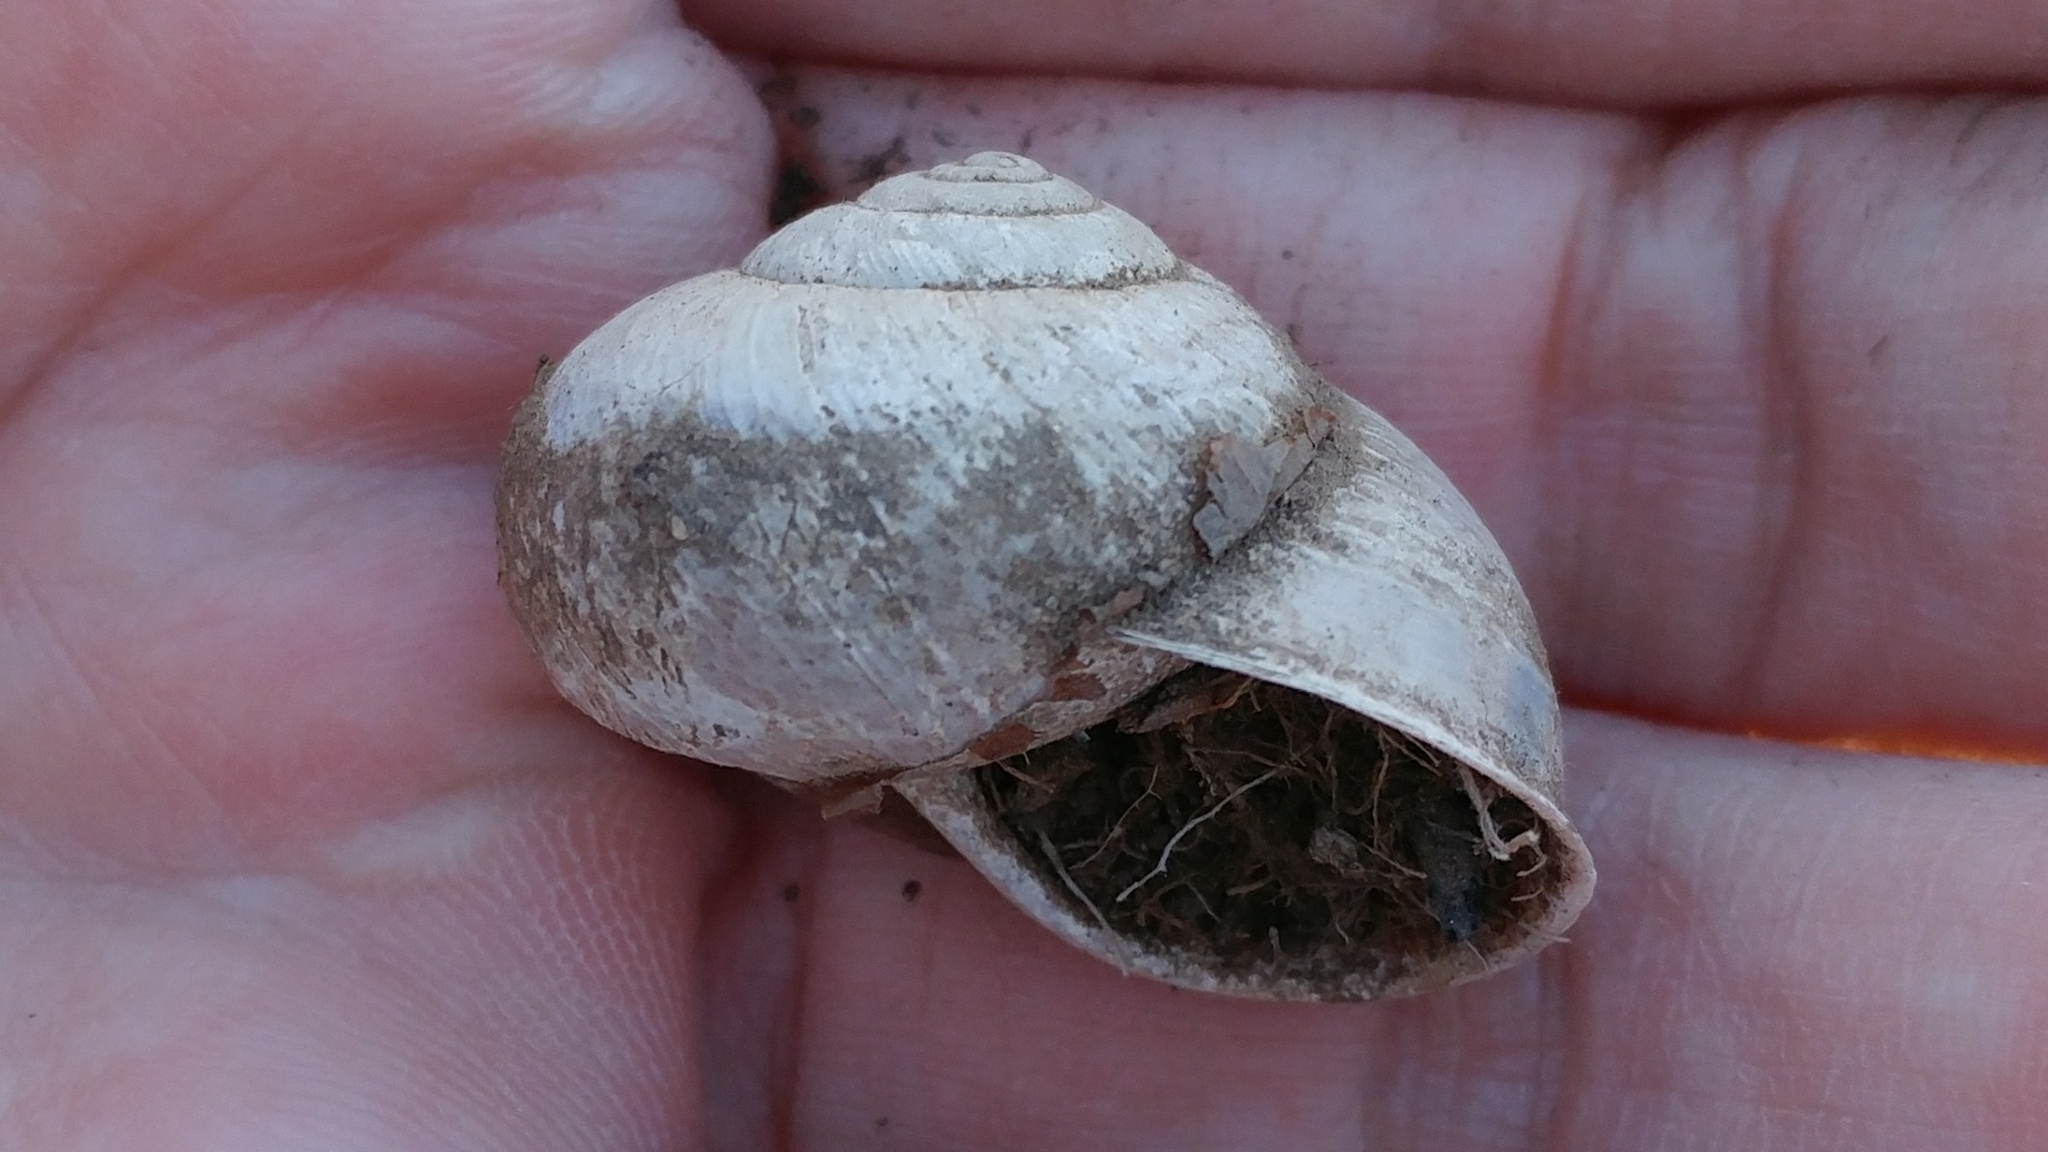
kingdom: Animalia
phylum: Mollusca
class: Gastropoda
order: Stylommatophora
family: Xanthonychidae
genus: Helminthoglypta
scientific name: Helminthoglypta tudiculata
